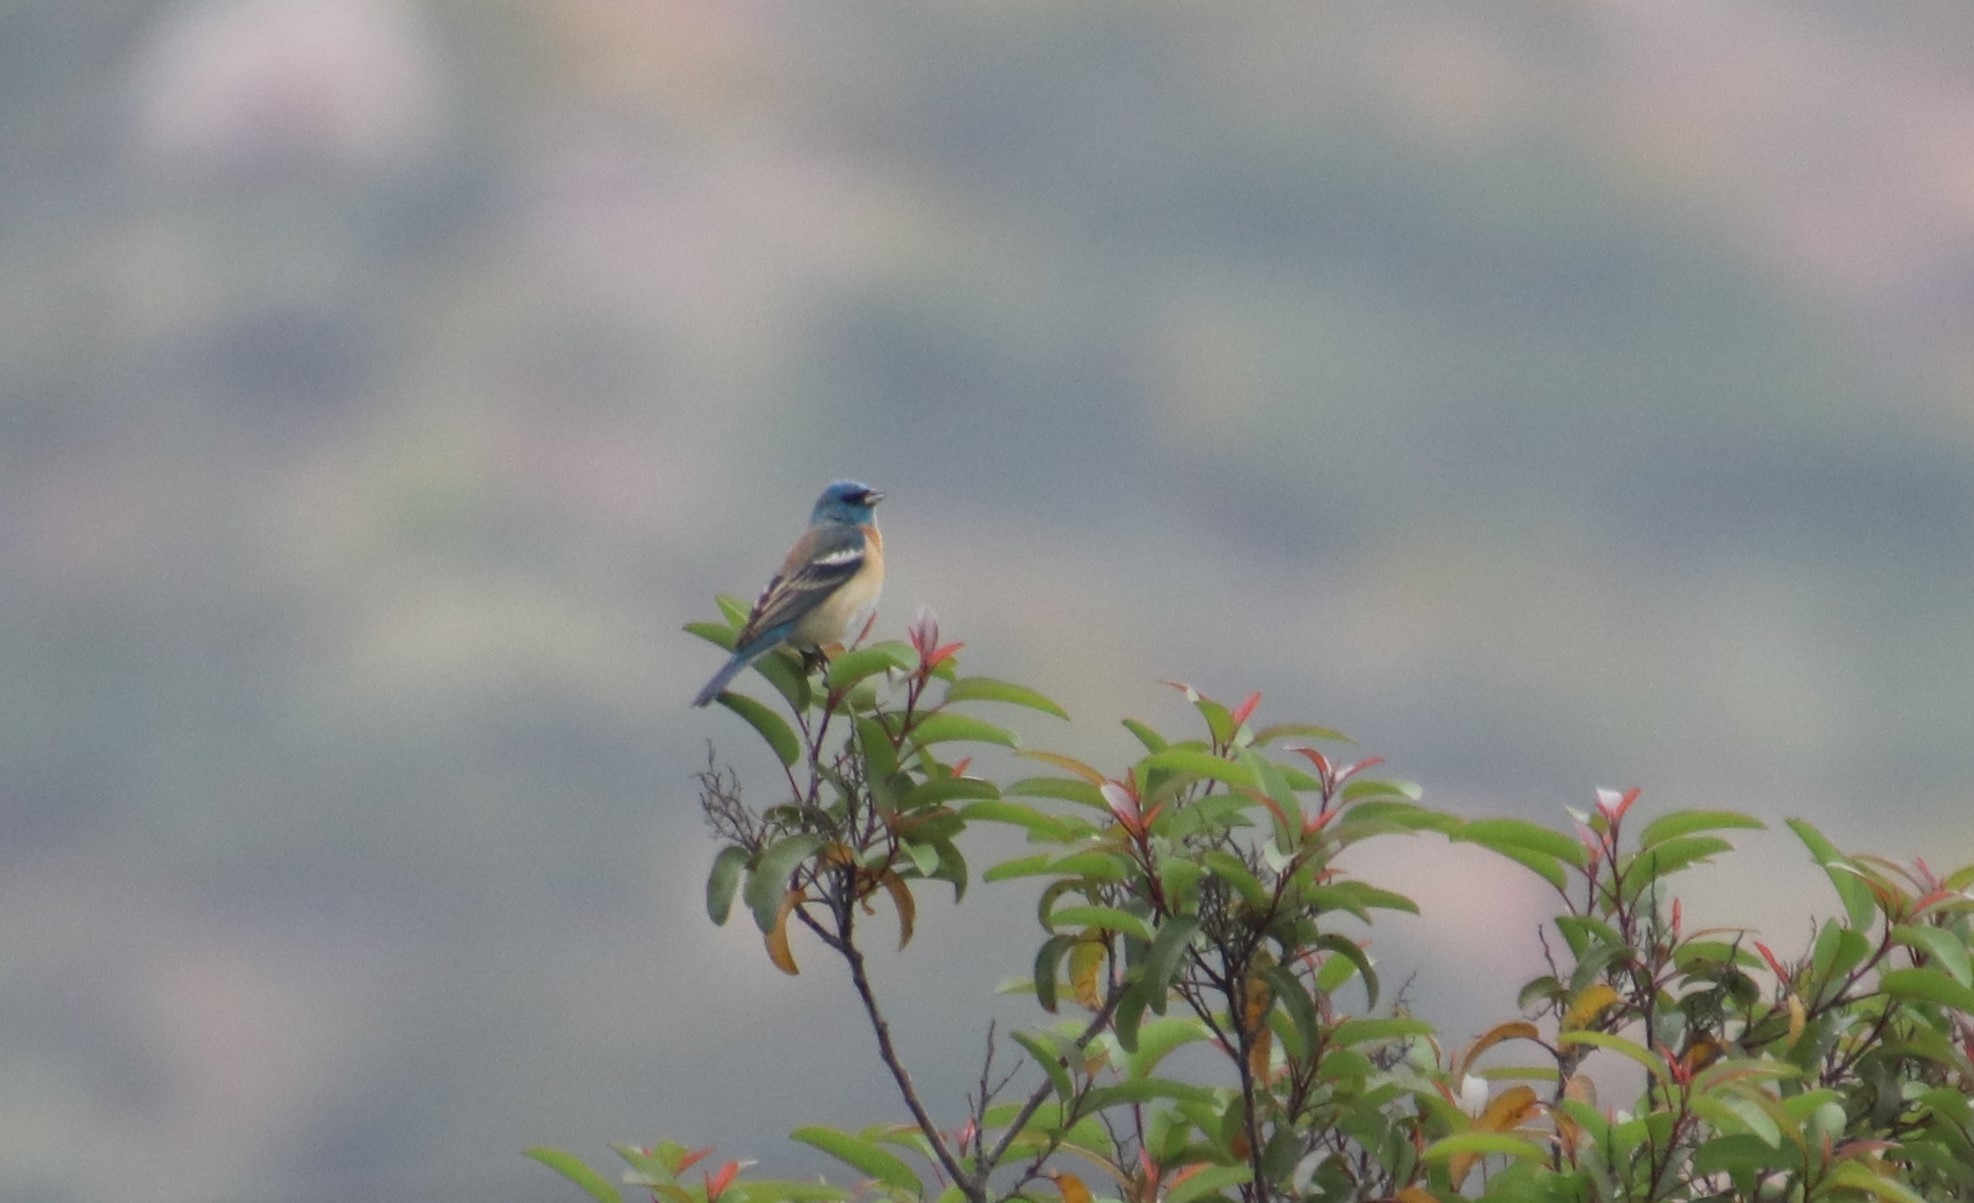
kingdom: Animalia
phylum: Chordata
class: Aves
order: Passeriformes
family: Cardinalidae
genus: Passerina
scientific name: Passerina amoena
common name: Lazuli bunting
